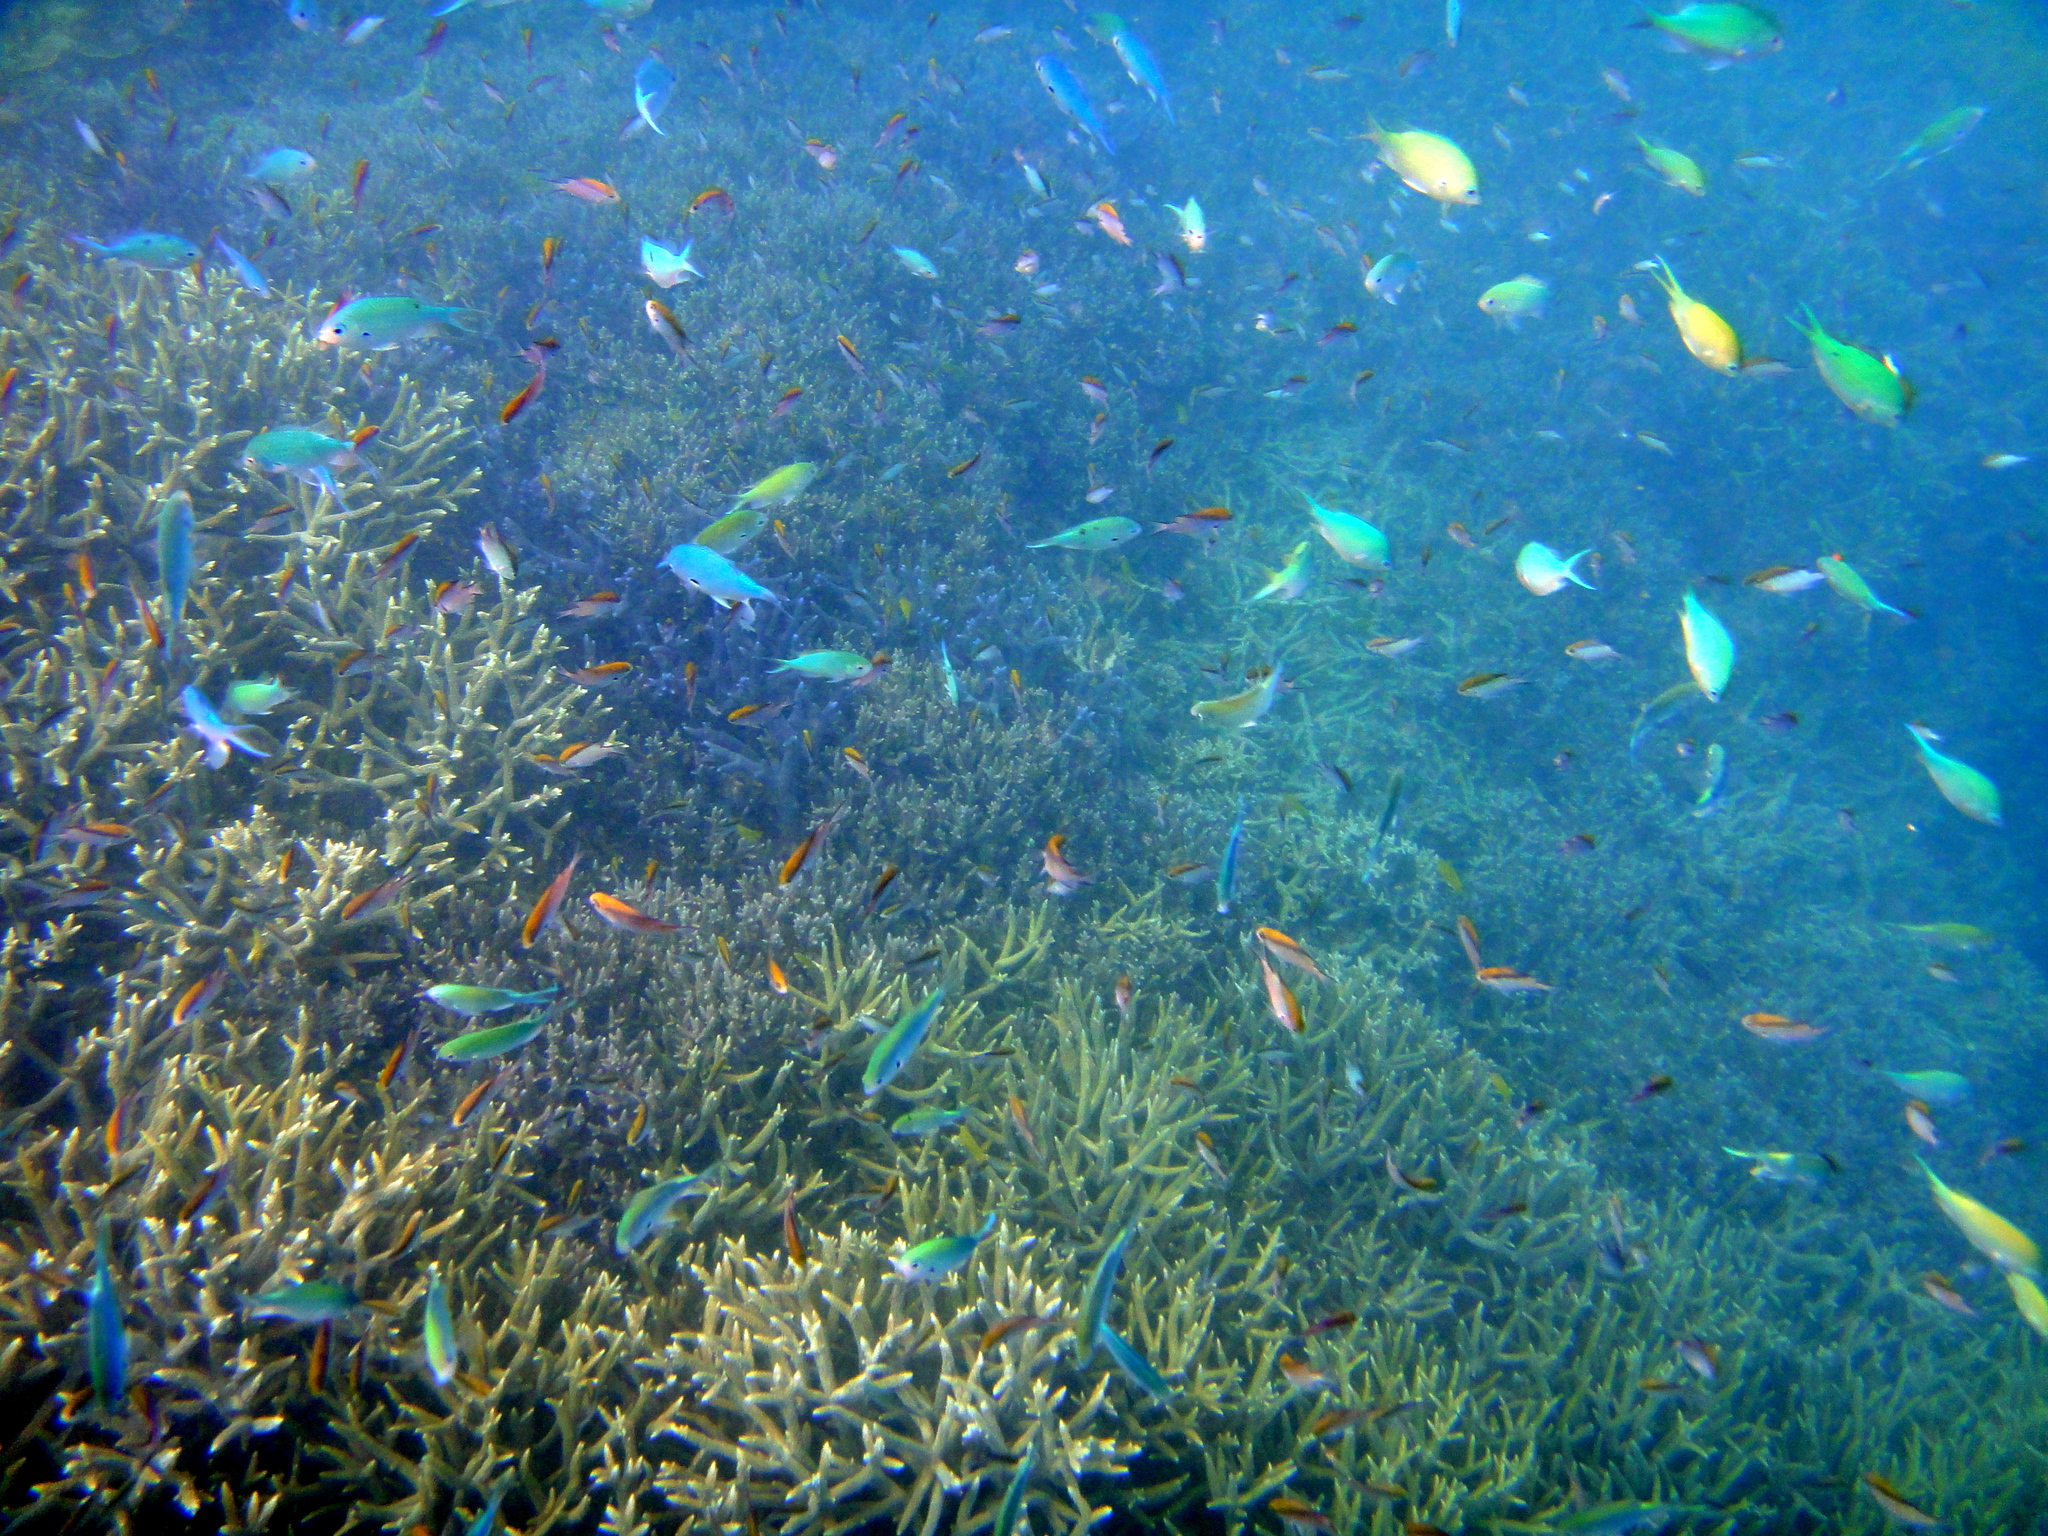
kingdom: Animalia
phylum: Chordata
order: Perciformes
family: Pomacentridae
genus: Chromis
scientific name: Chromis atripectoralis
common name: Black-axil chromis
